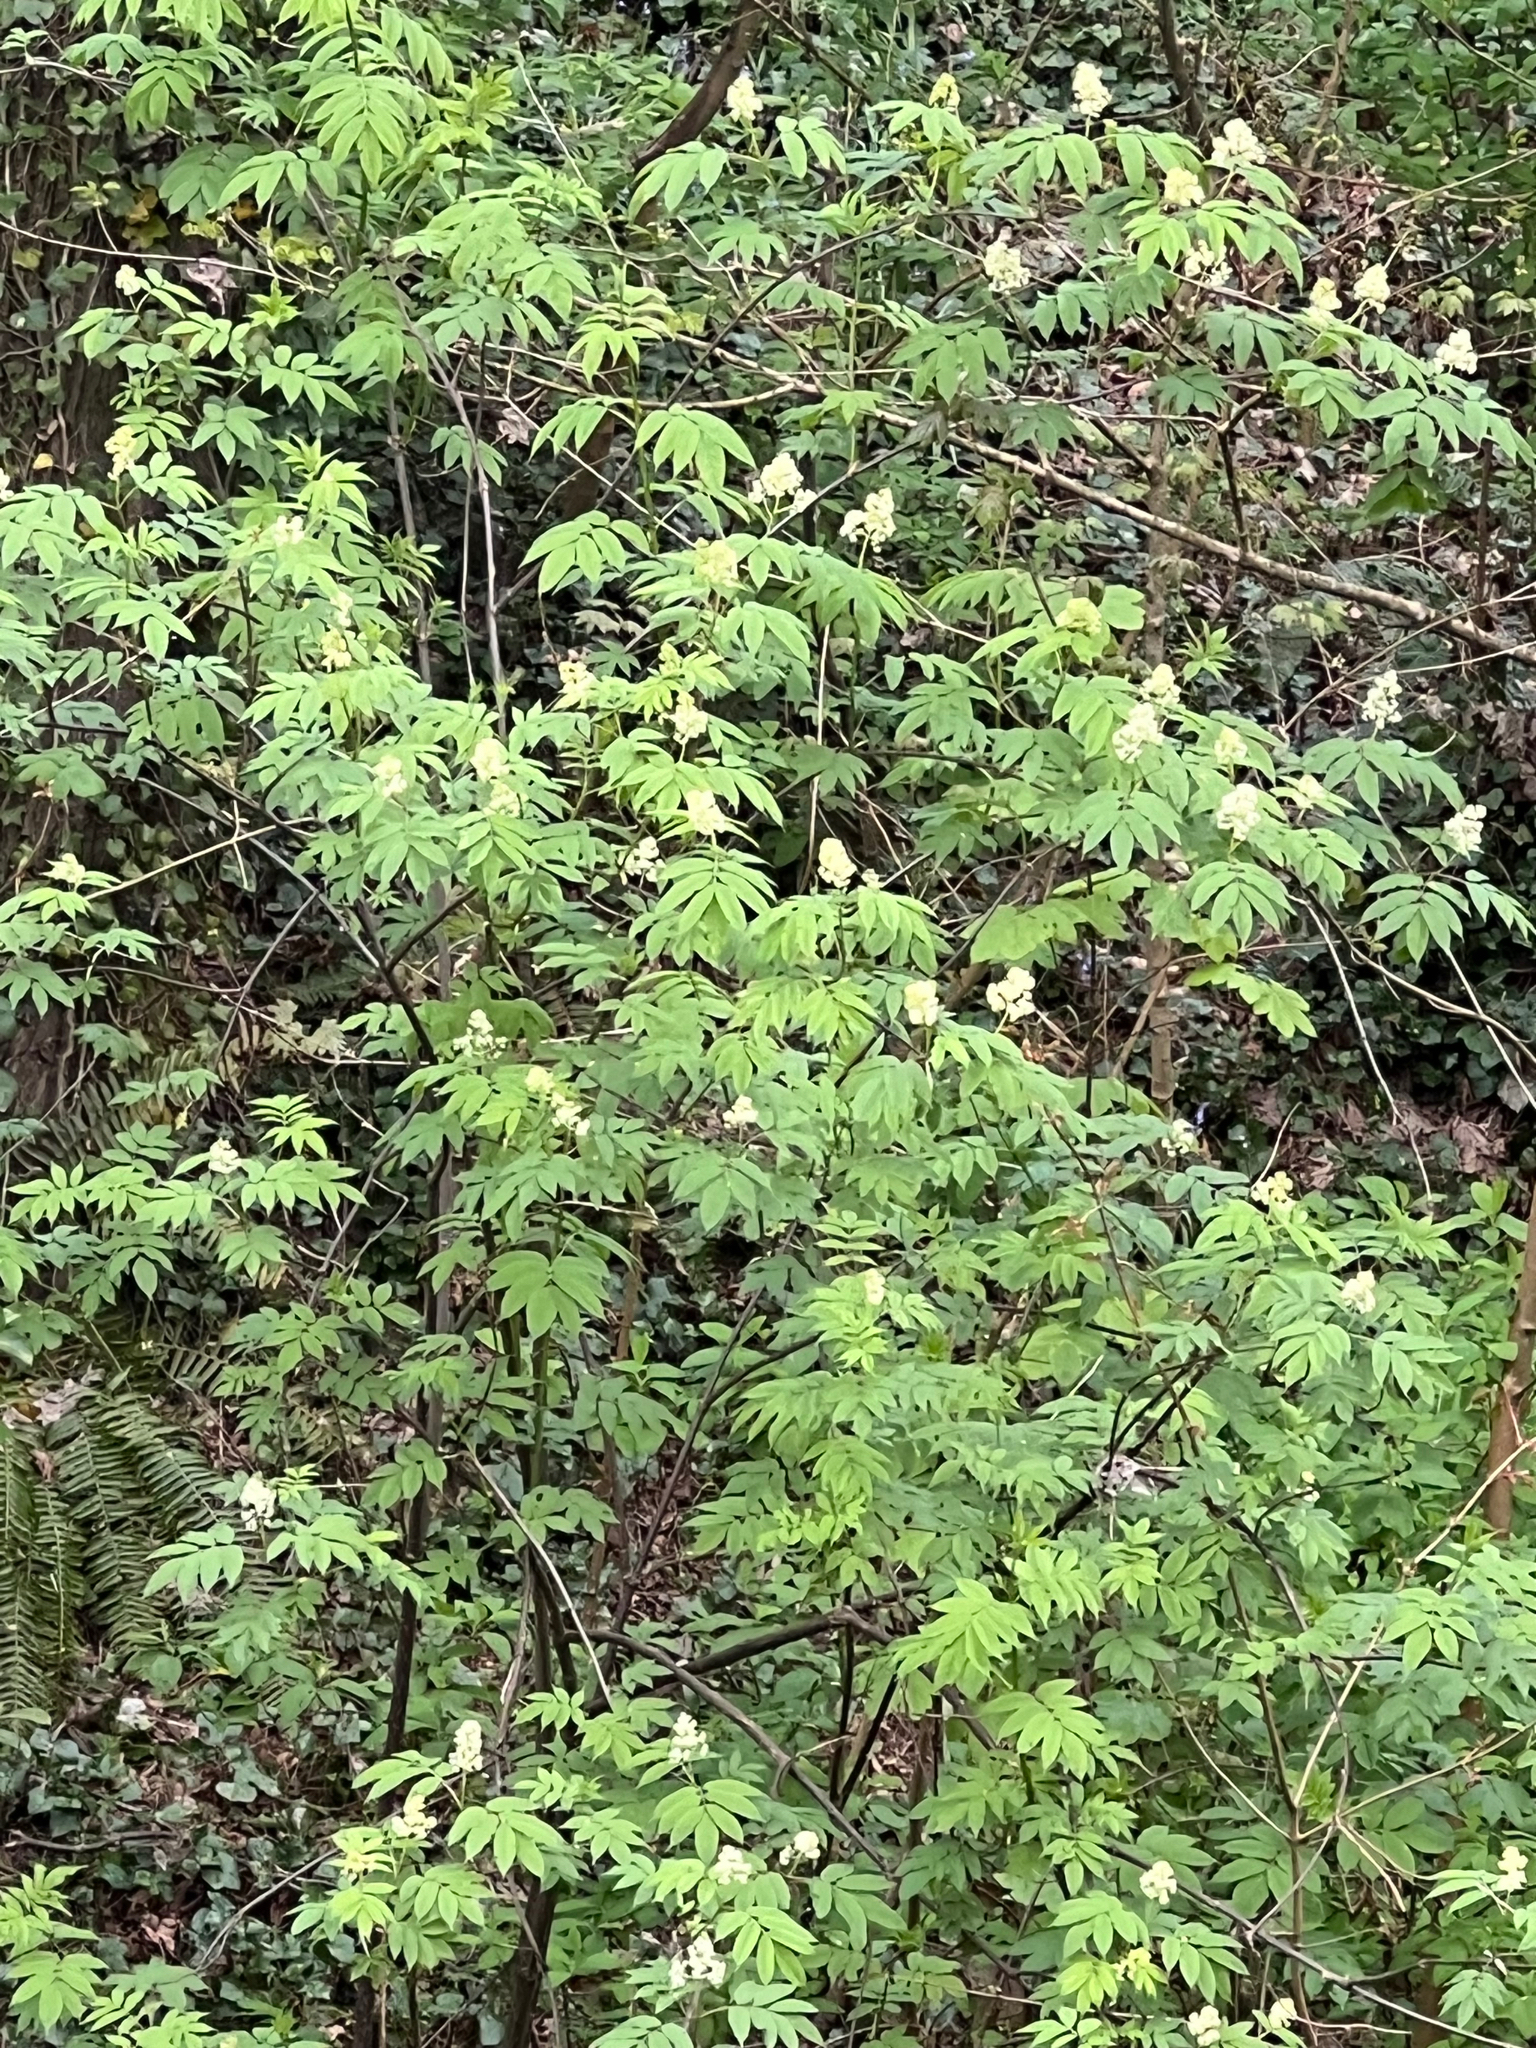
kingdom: Plantae
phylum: Tracheophyta
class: Magnoliopsida
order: Dipsacales
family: Viburnaceae
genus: Sambucus
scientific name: Sambucus racemosa
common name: Red-berried elder
